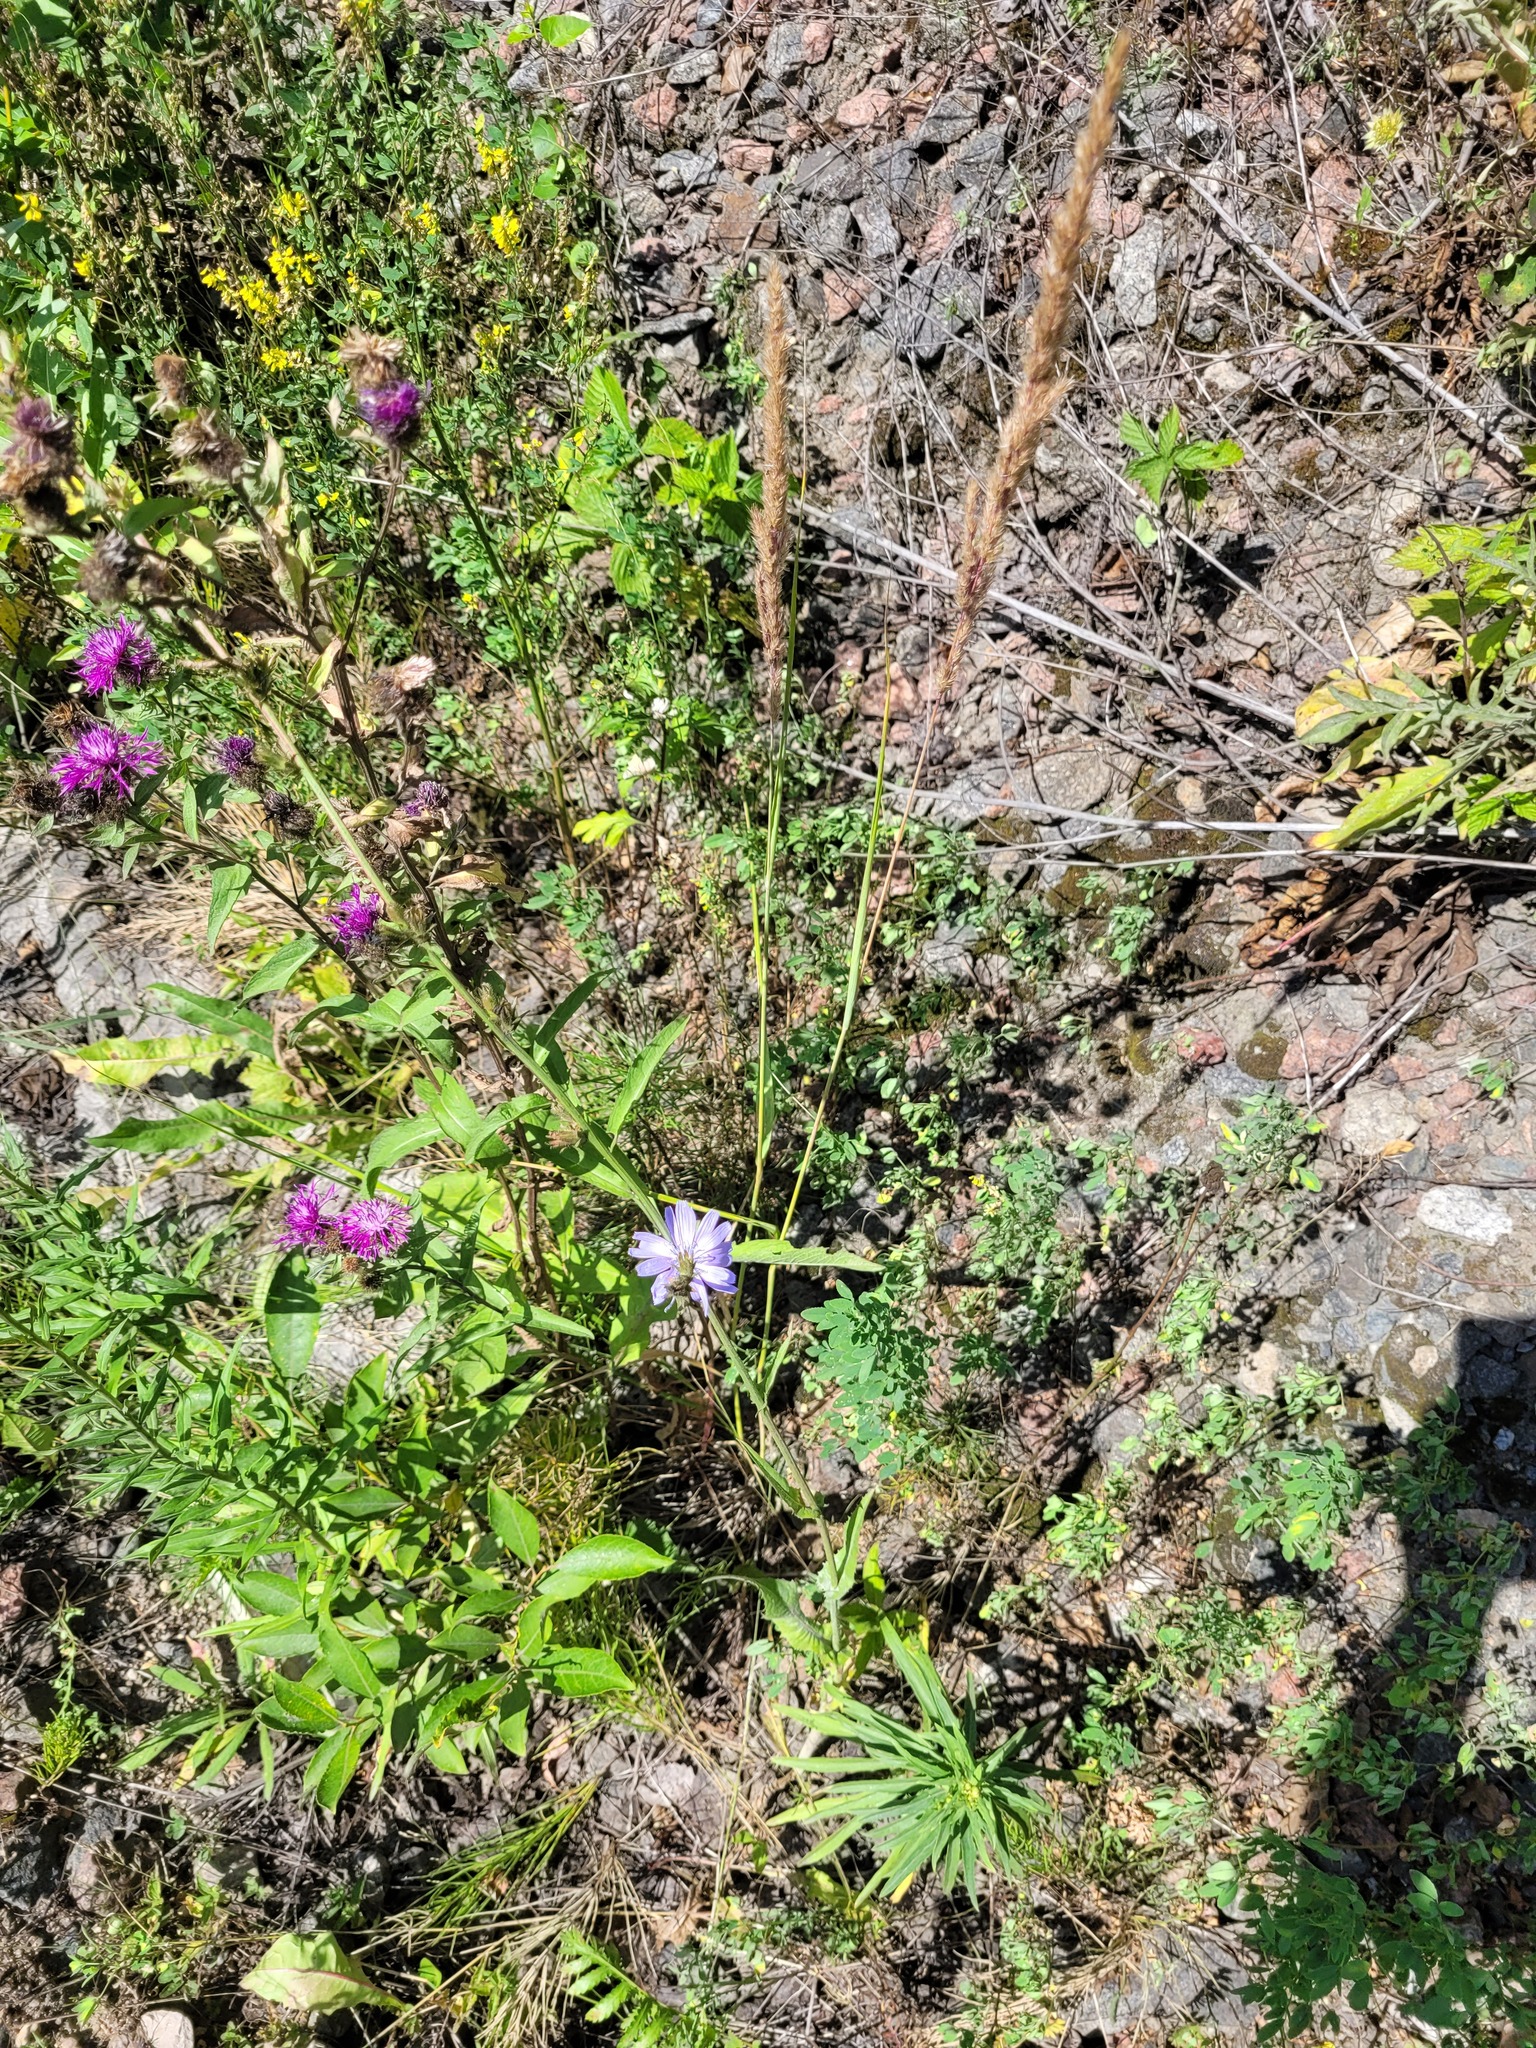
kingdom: Plantae
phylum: Tracheophyta
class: Magnoliopsida
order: Asterales
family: Asteraceae
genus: Cichorium
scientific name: Cichorium intybus
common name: Chicory
